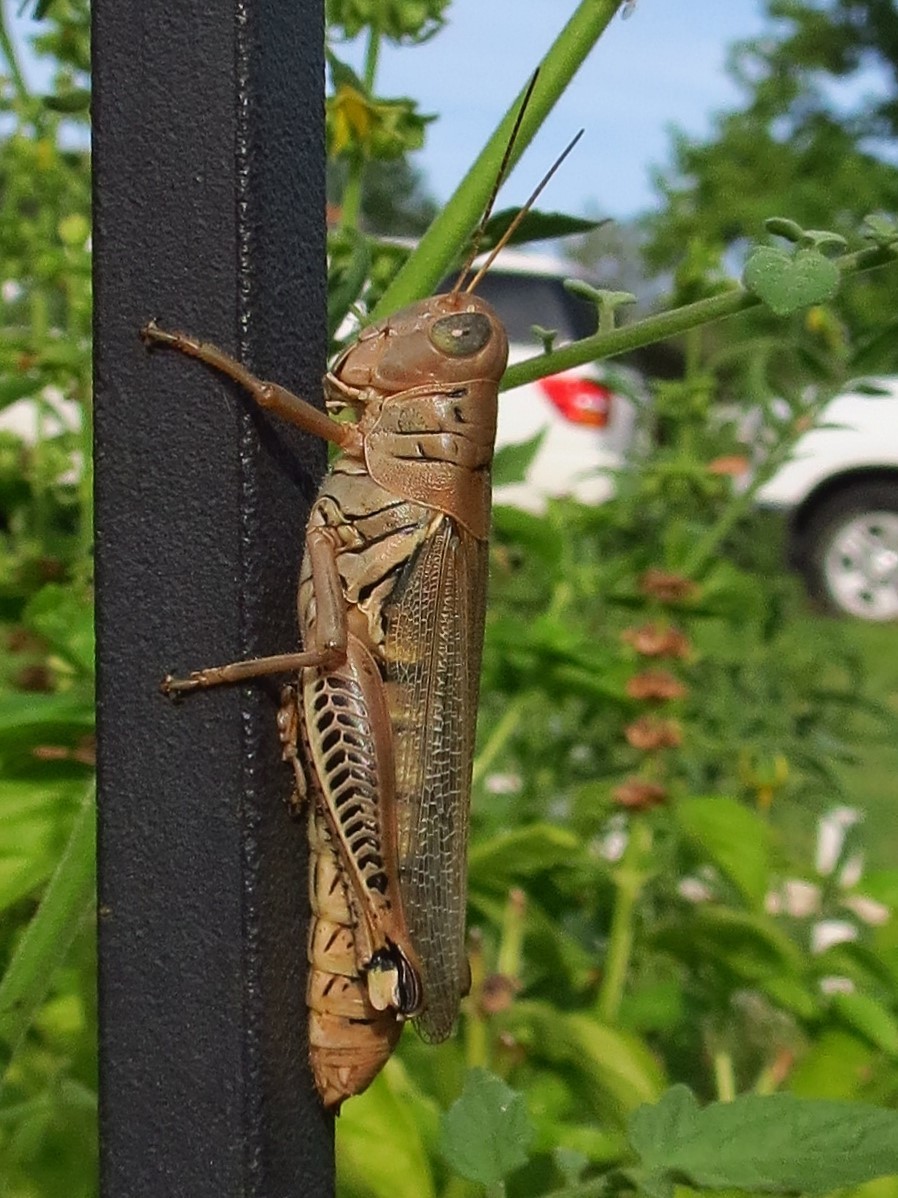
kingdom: Animalia
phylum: Arthropoda
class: Insecta
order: Orthoptera
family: Acrididae
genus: Melanoplus
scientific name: Melanoplus differentialis
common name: Differential grasshopper
